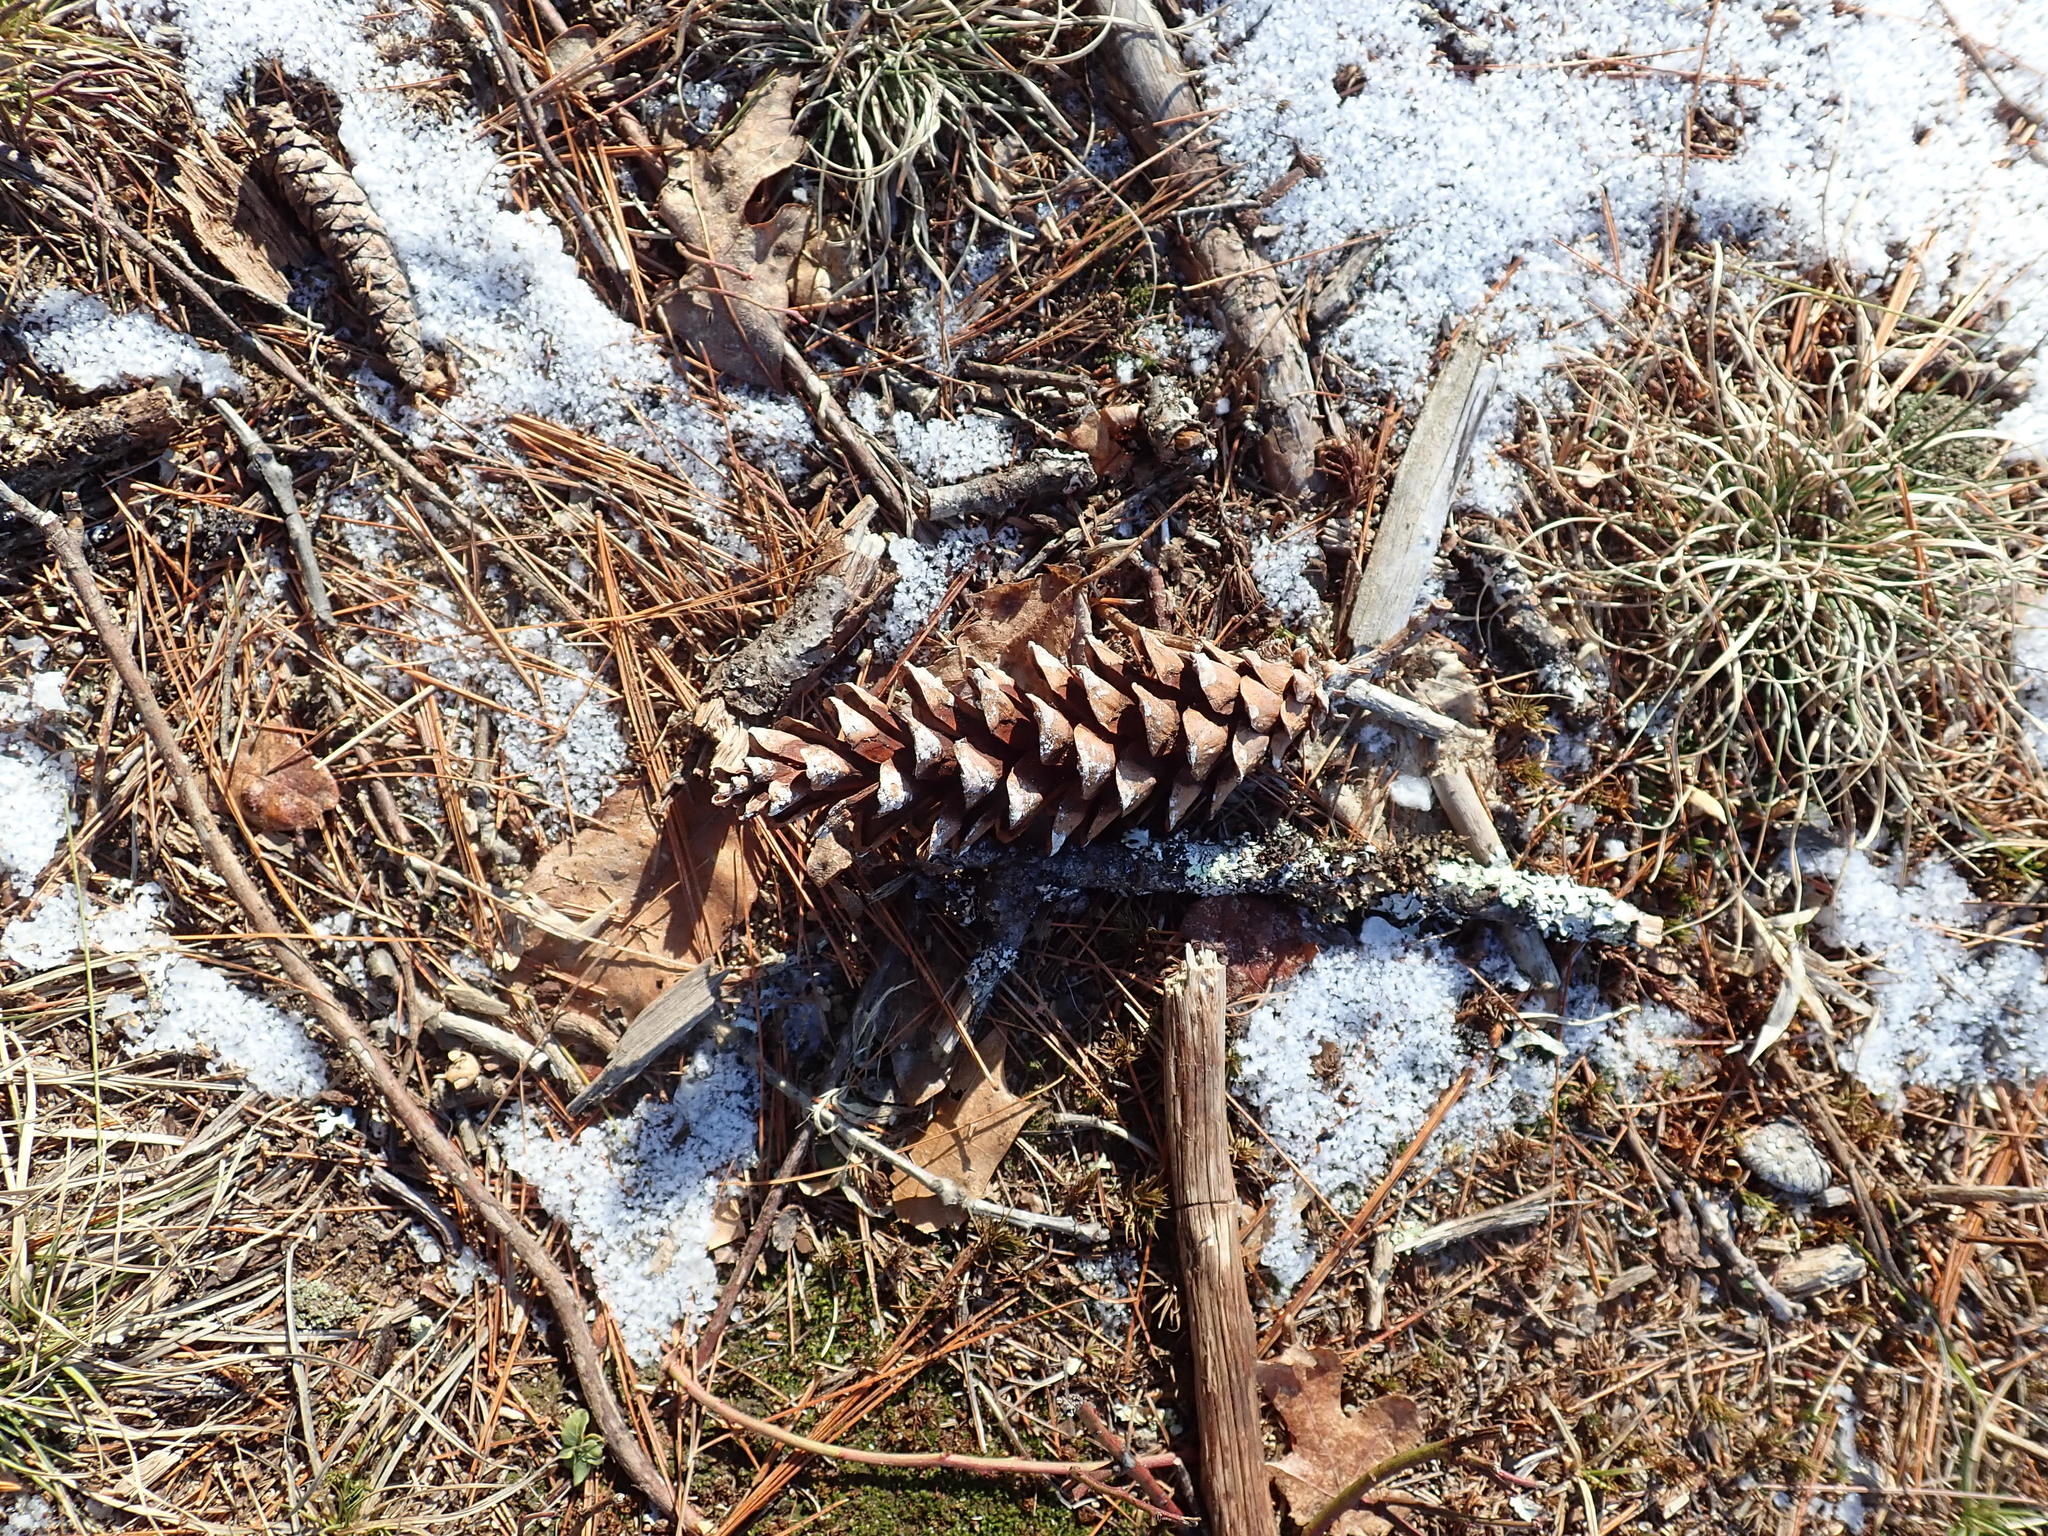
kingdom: Plantae
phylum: Tracheophyta
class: Pinopsida
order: Pinales
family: Pinaceae
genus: Pinus
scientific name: Pinus strobus
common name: Weymouth pine
